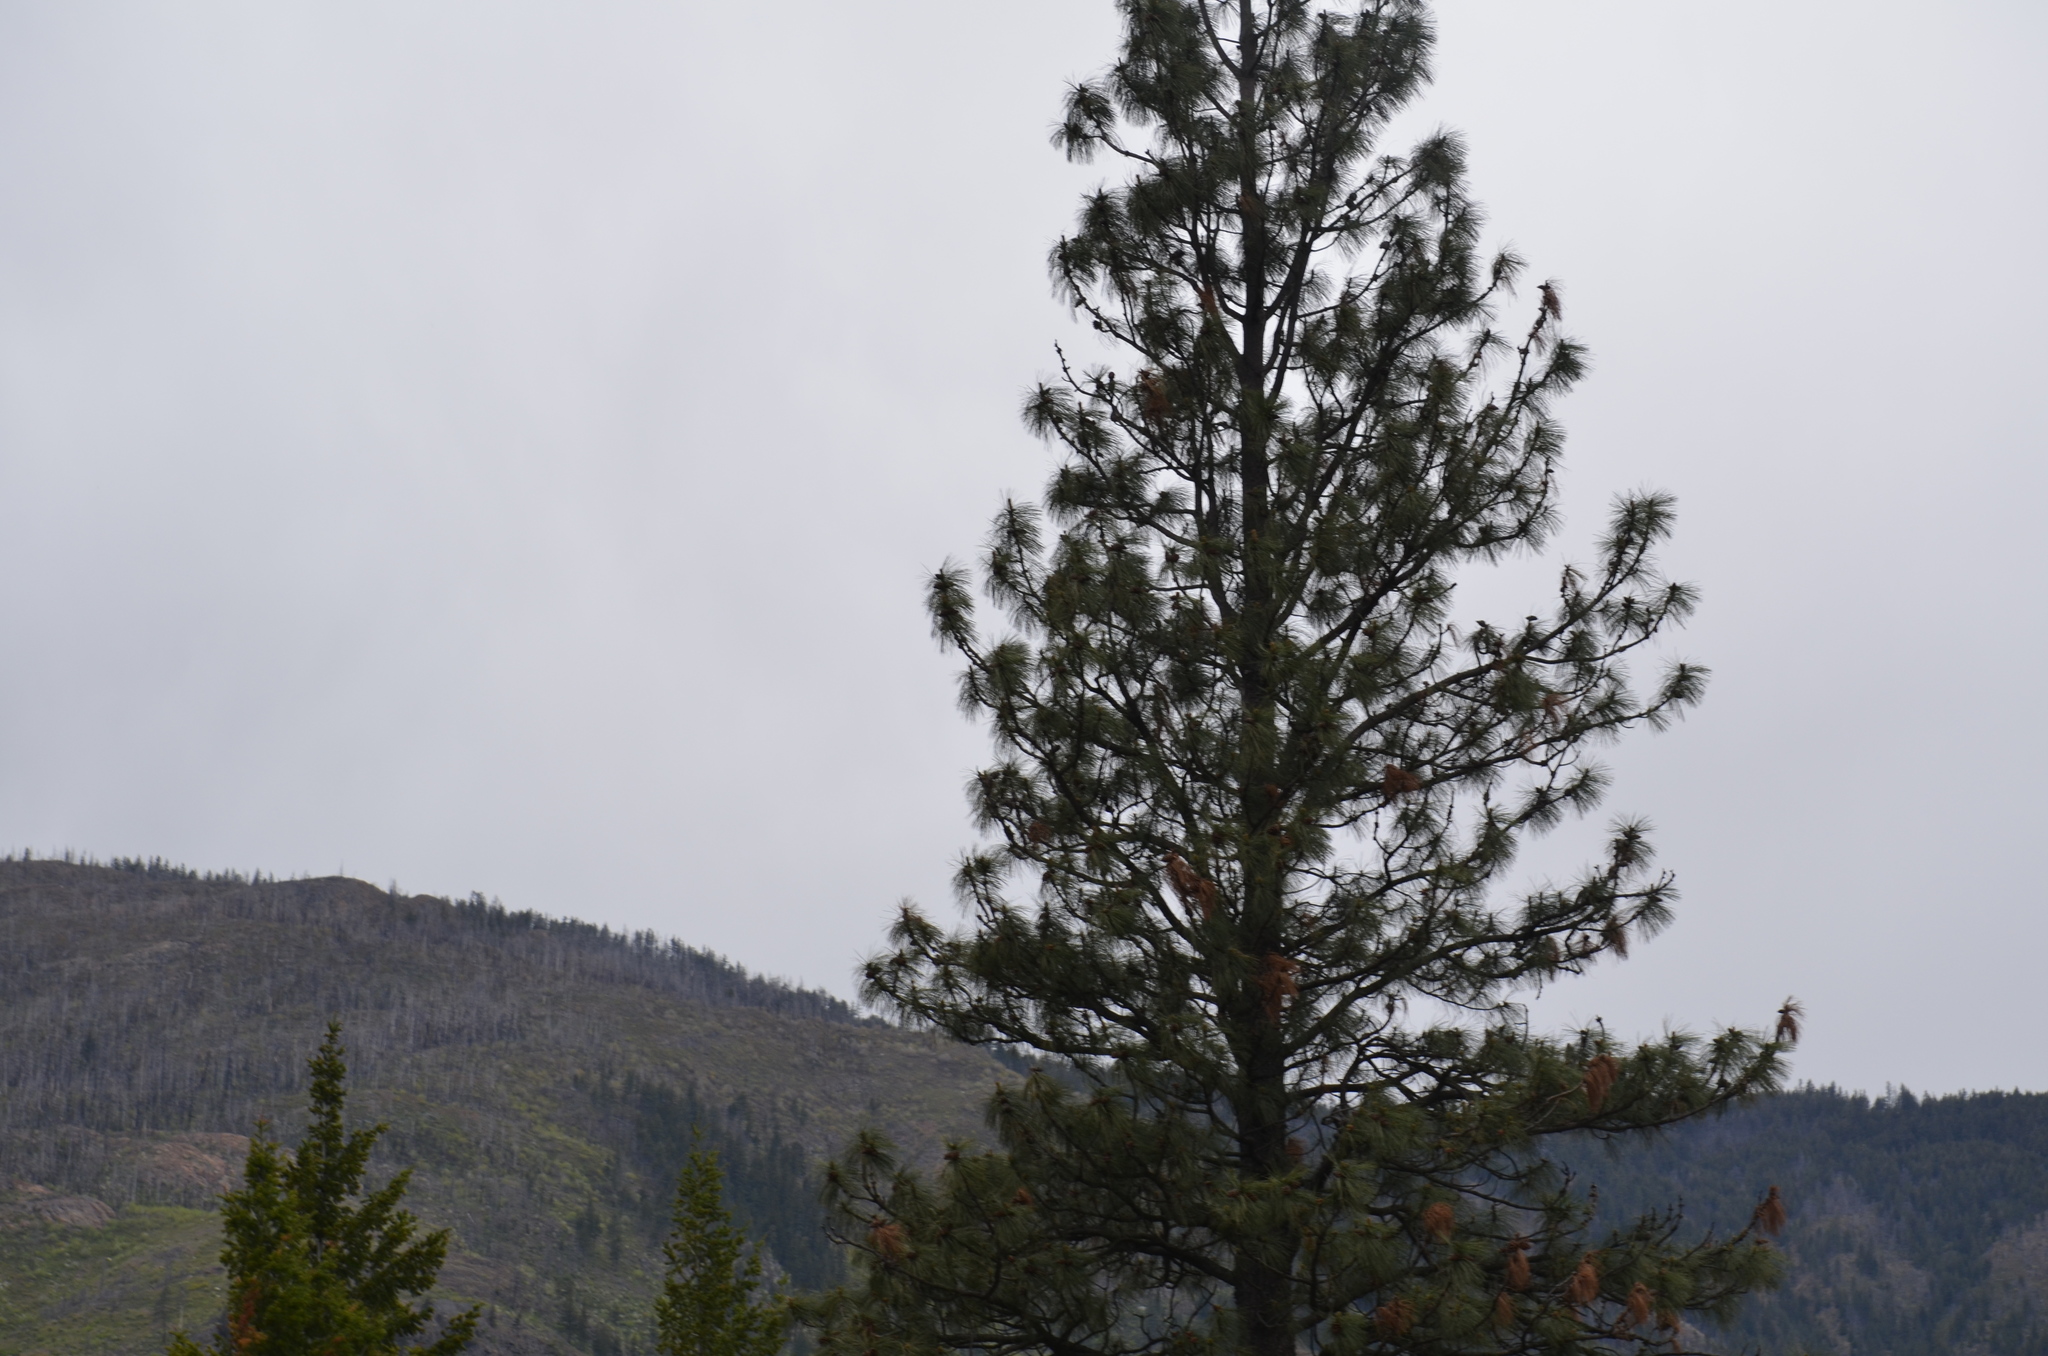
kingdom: Plantae
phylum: Tracheophyta
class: Pinopsida
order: Pinales
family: Pinaceae
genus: Pinus
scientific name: Pinus ponderosa
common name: Western yellow-pine
